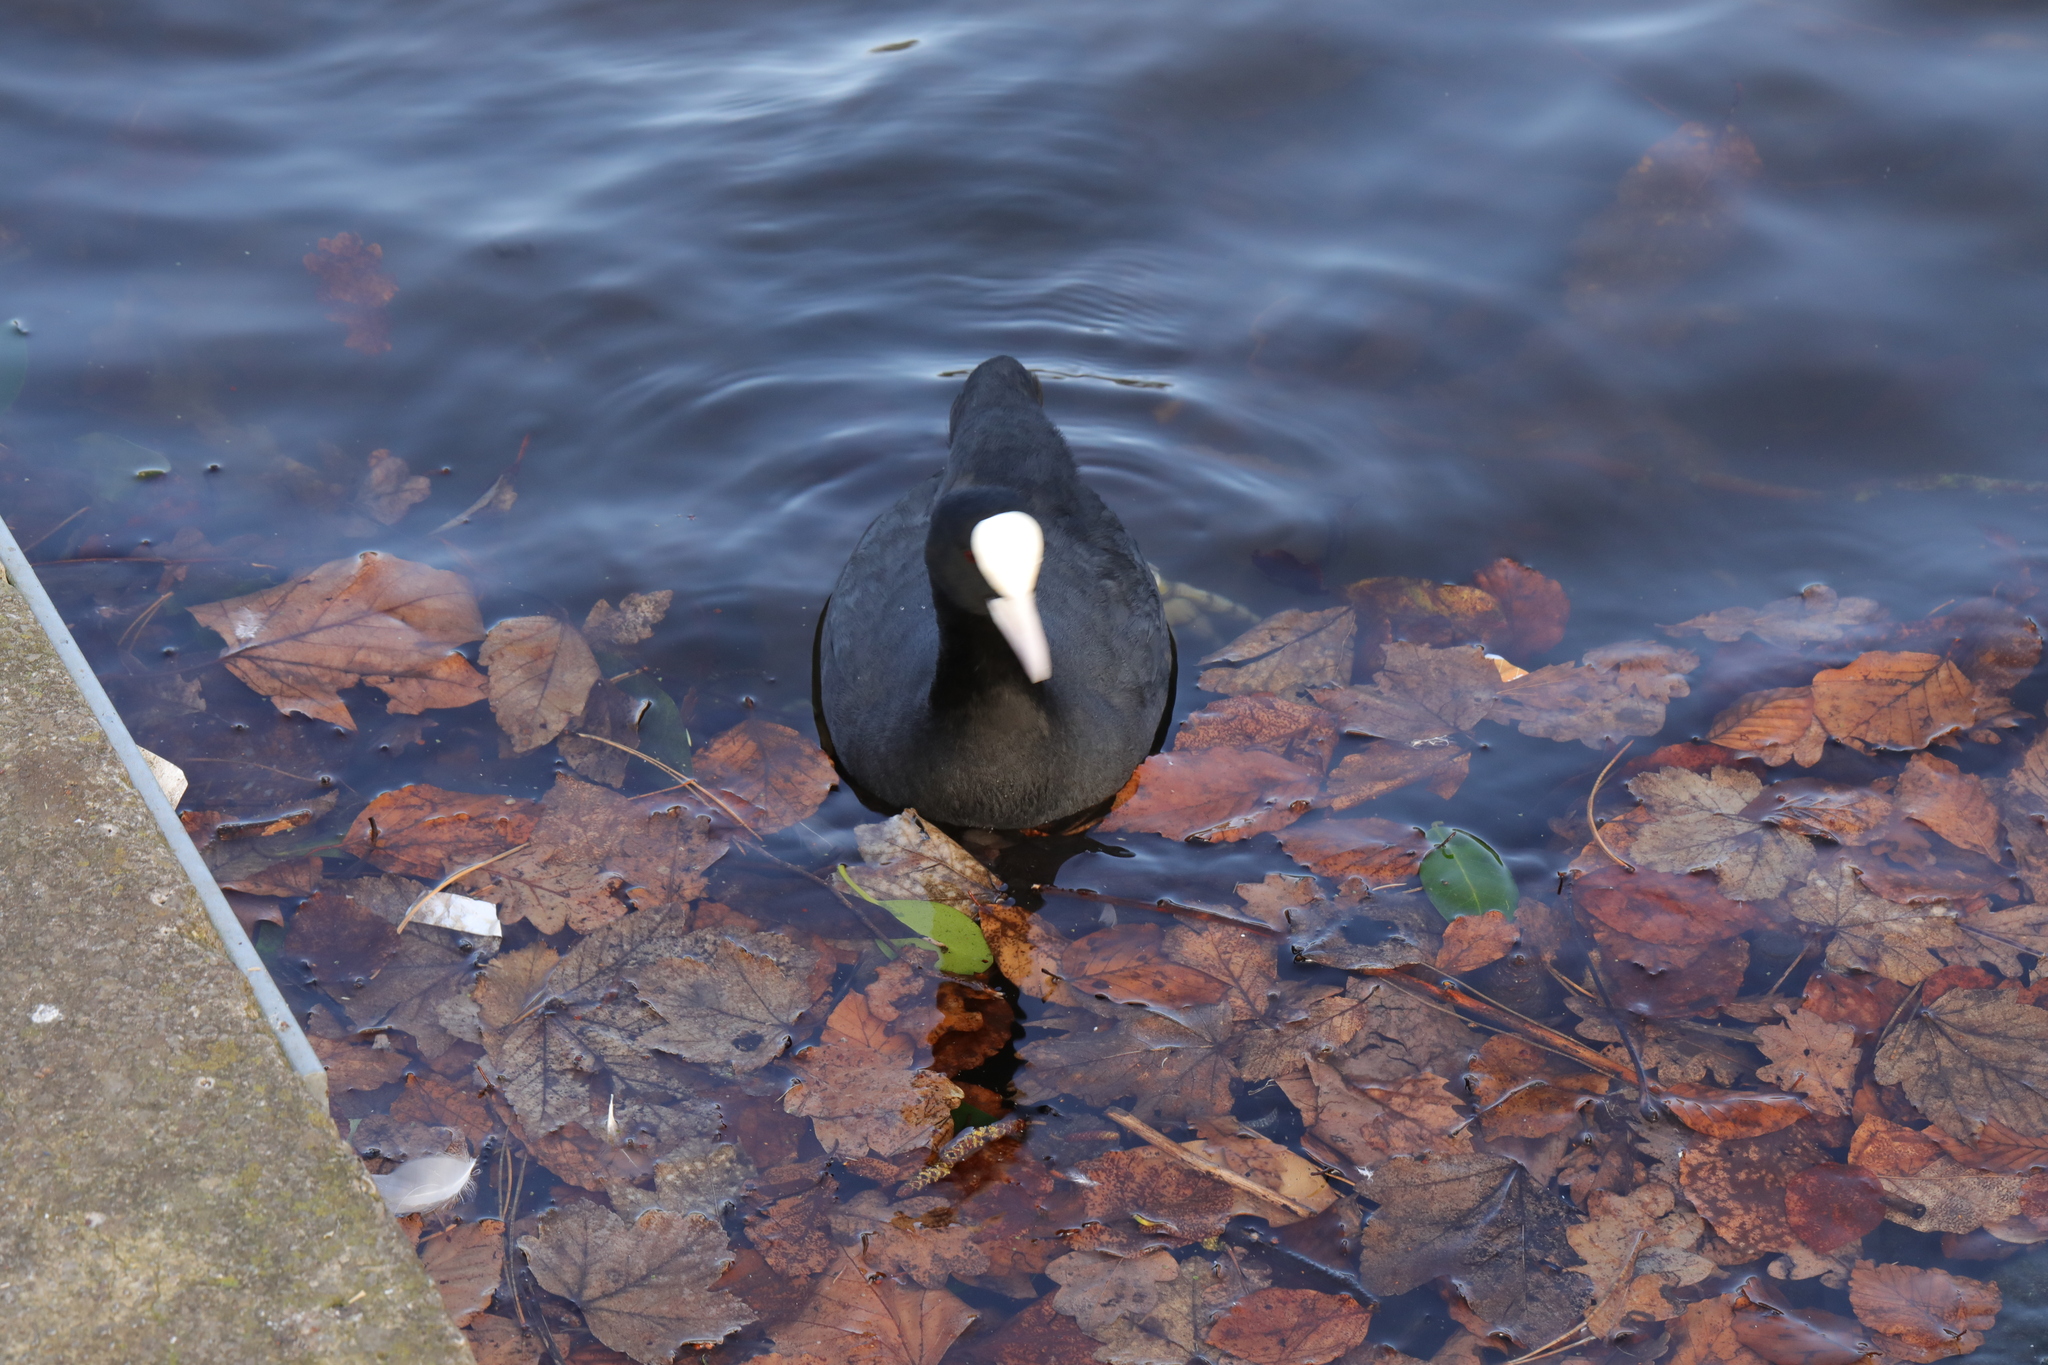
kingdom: Animalia
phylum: Chordata
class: Aves
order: Gruiformes
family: Rallidae
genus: Fulica
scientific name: Fulica atra
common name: Eurasian coot
